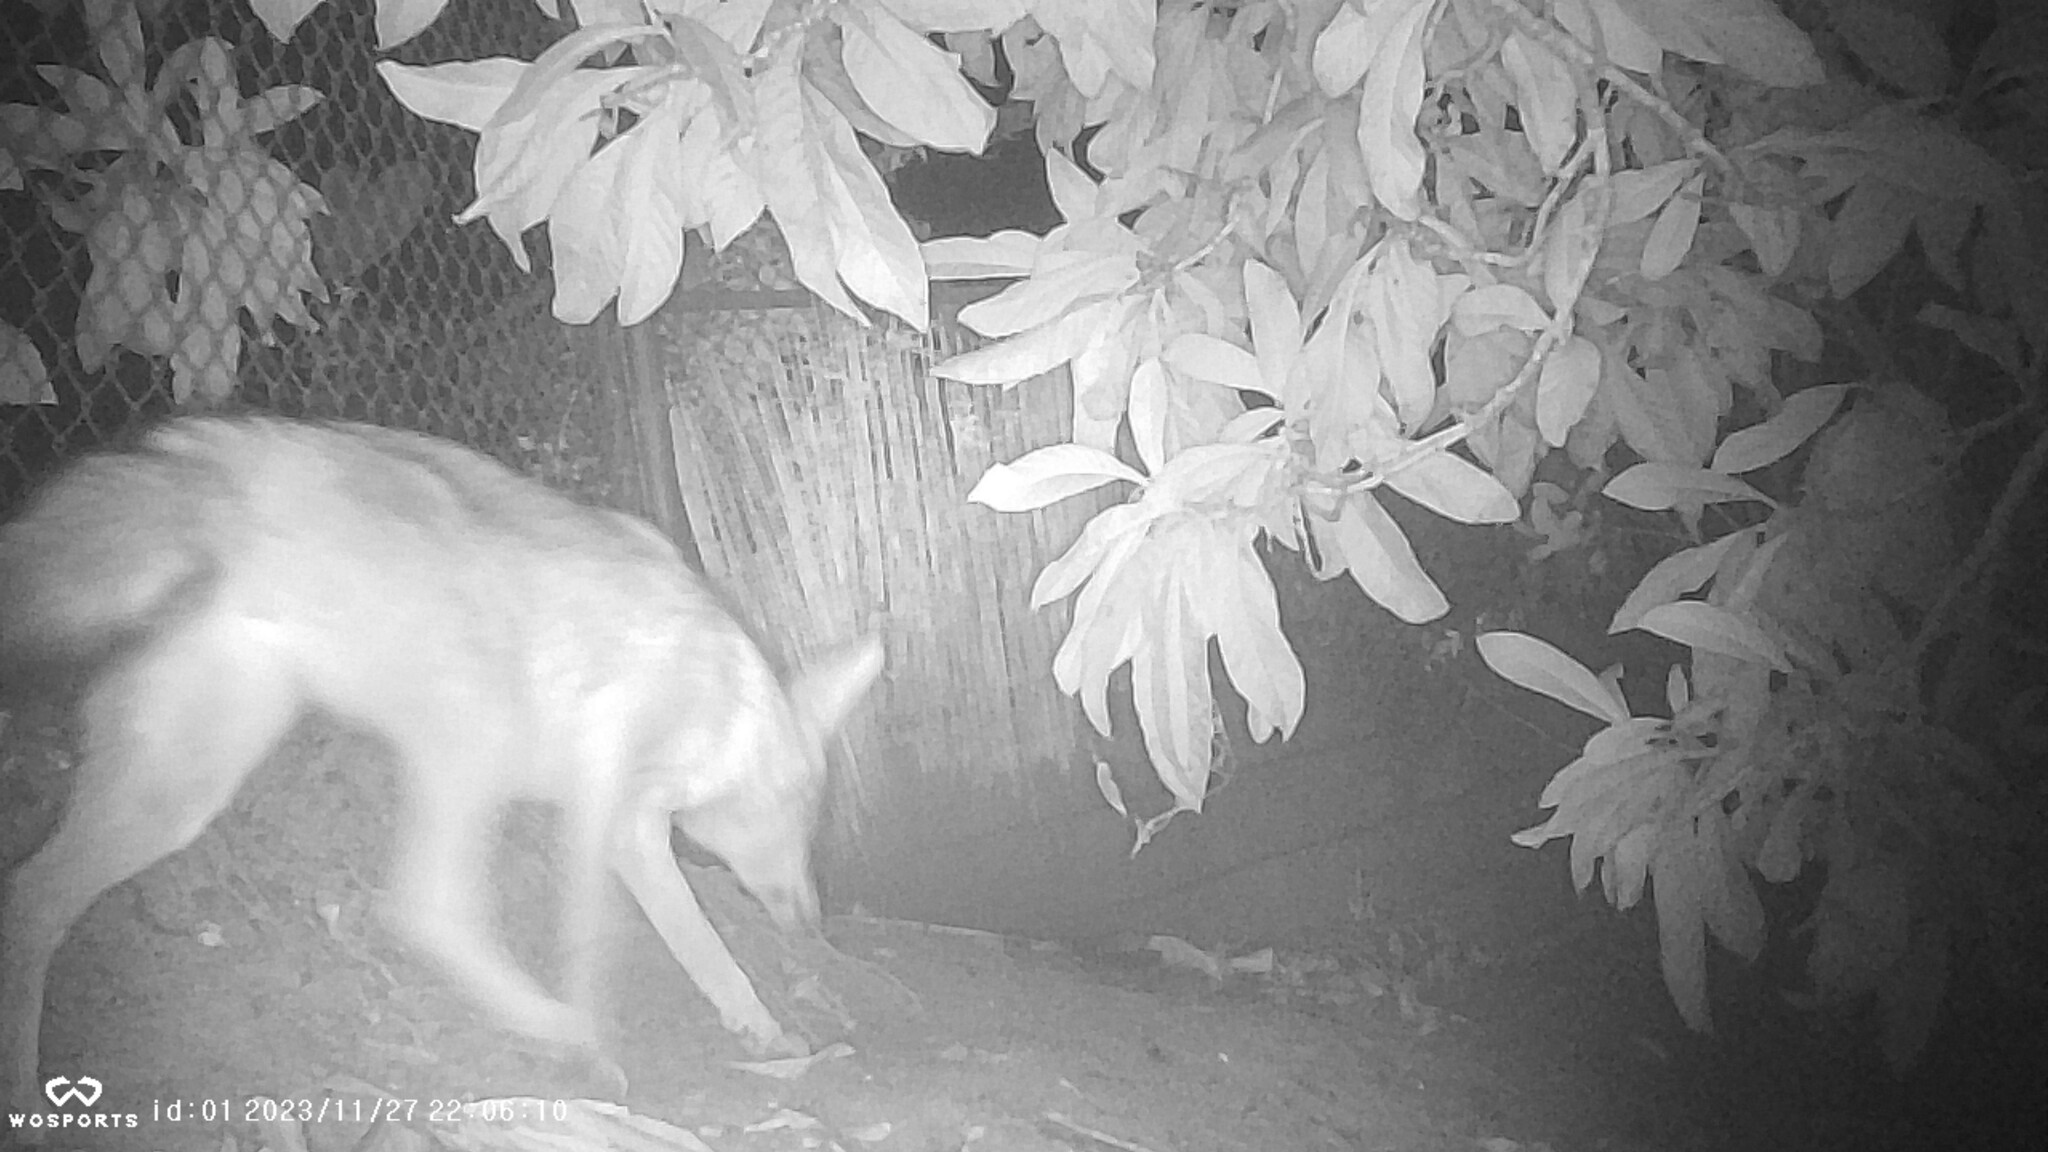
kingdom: Animalia
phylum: Chordata
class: Mammalia
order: Carnivora
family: Canidae
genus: Canis
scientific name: Canis latrans
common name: Coyote
